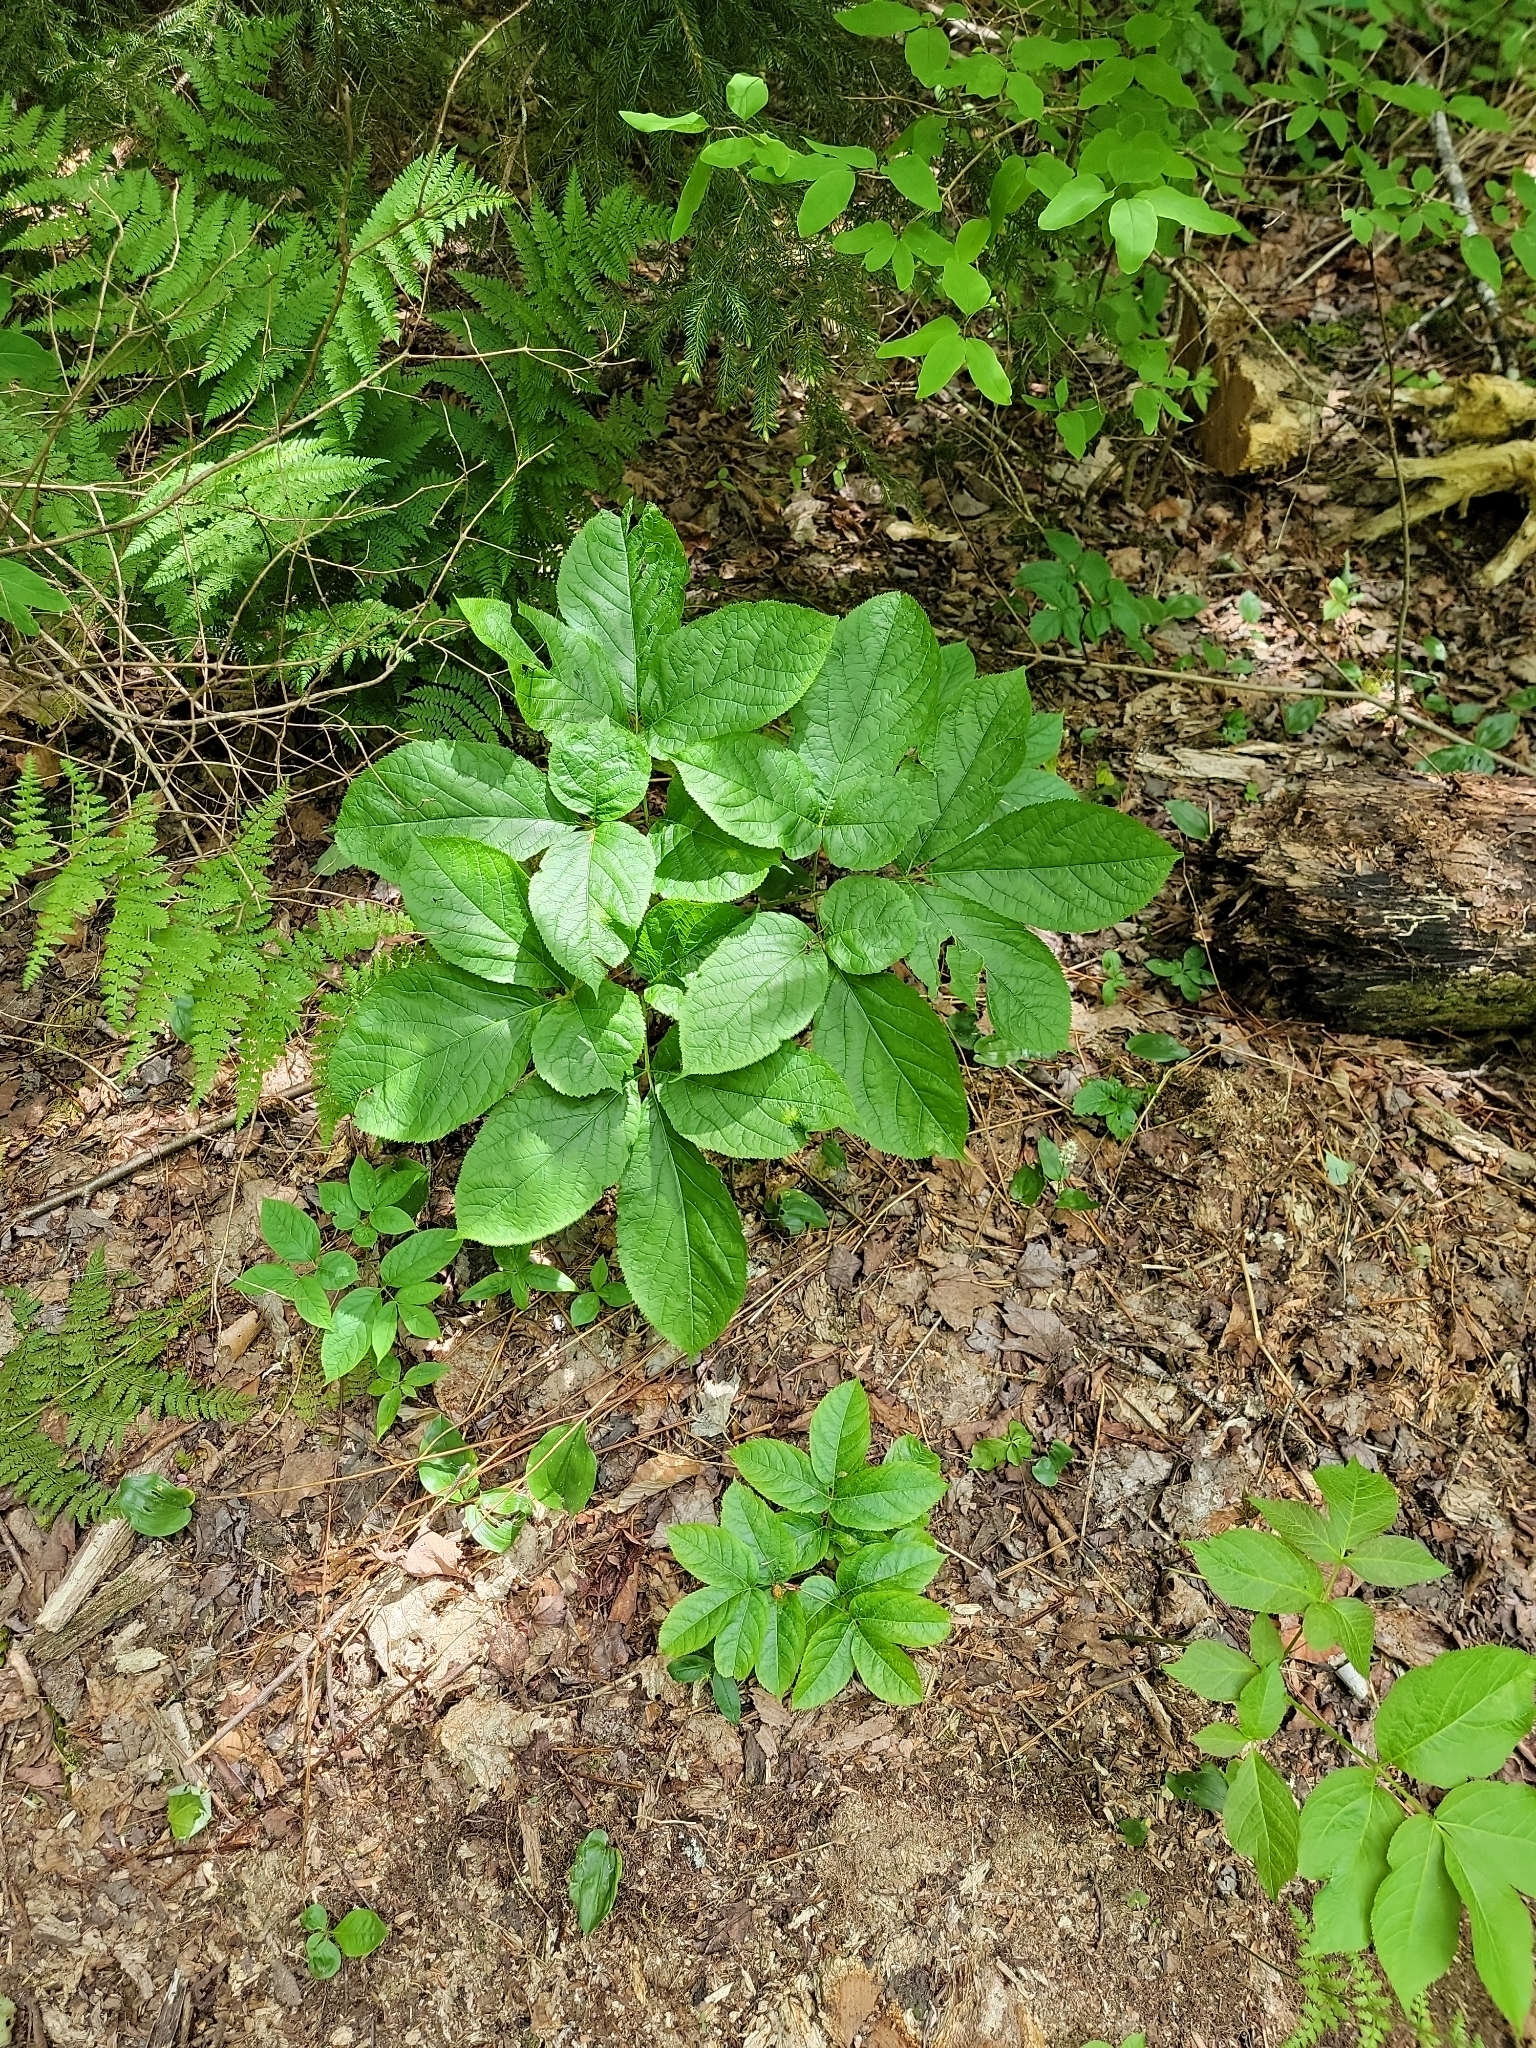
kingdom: Plantae
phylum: Tracheophyta
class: Magnoliopsida
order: Apiales
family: Araliaceae
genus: Aralia
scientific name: Aralia nudicaulis
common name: Wild sarsaparilla
